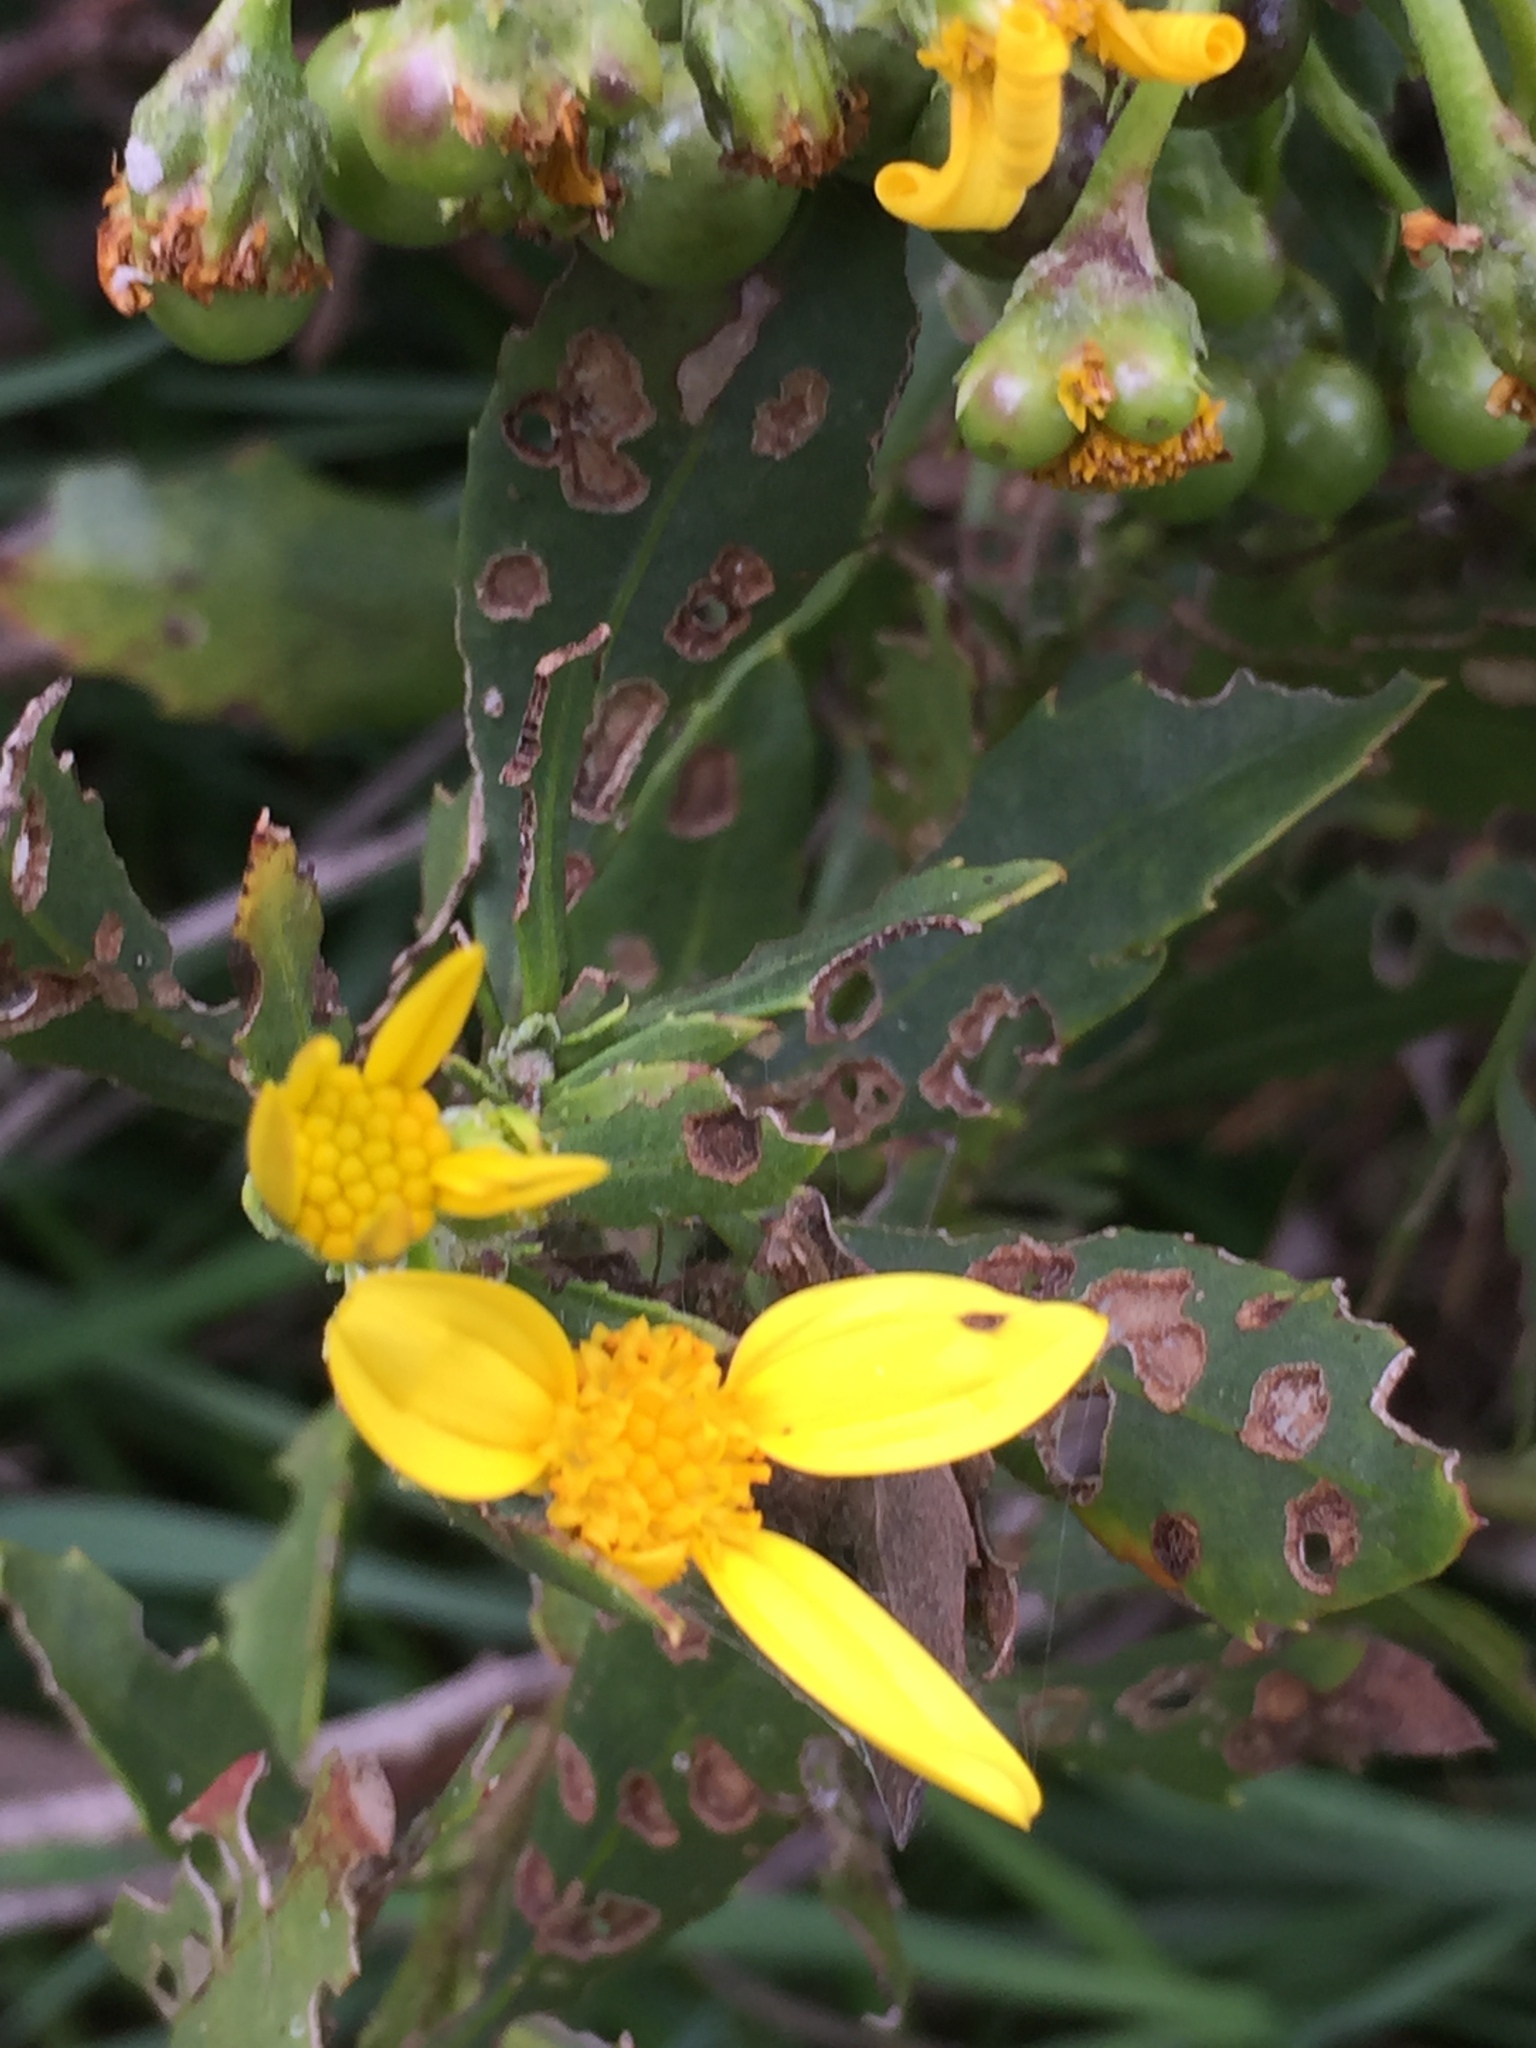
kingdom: Plantae
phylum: Tracheophyta
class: Magnoliopsida
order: Asterales
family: Asteraceae
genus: Osteospermum
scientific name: Osteospermum moniliferum
